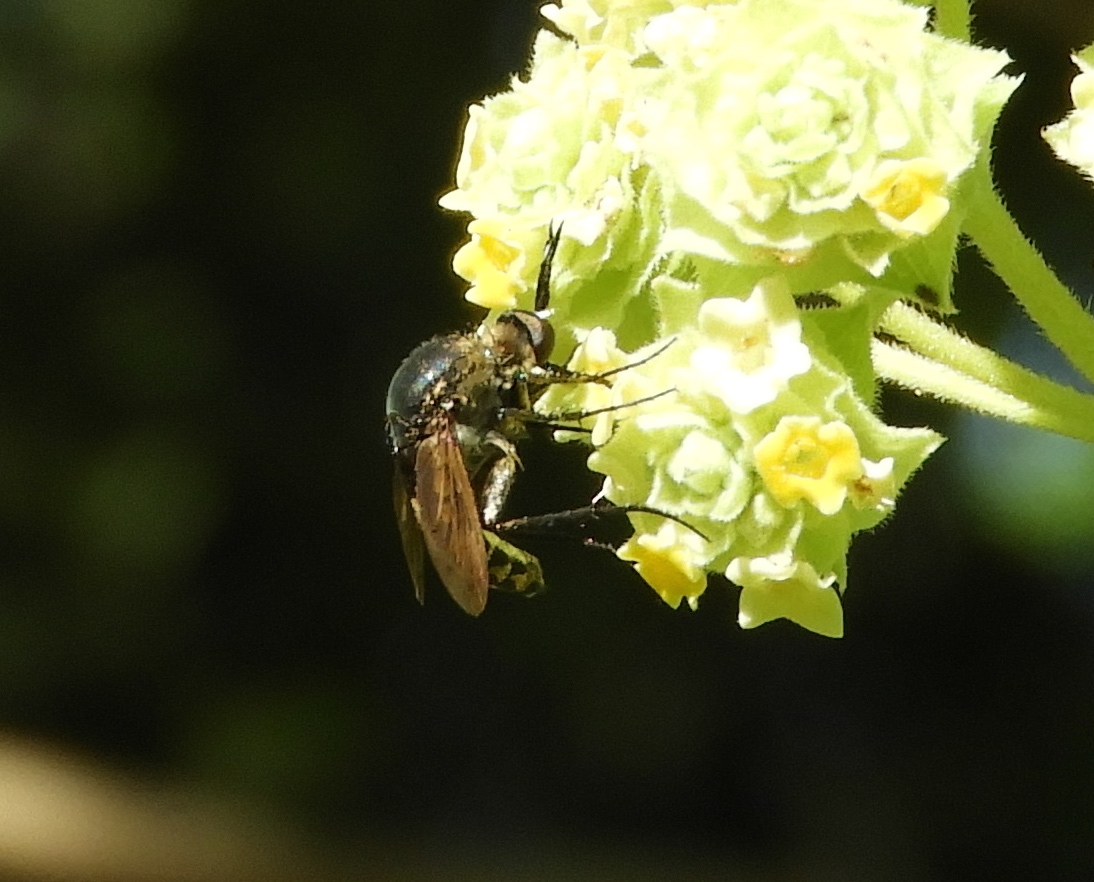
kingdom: Animalia
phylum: Arthropoda
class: Insecta
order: Diptera
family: Bombyliidae
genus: Toxophora
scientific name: Toxophora
